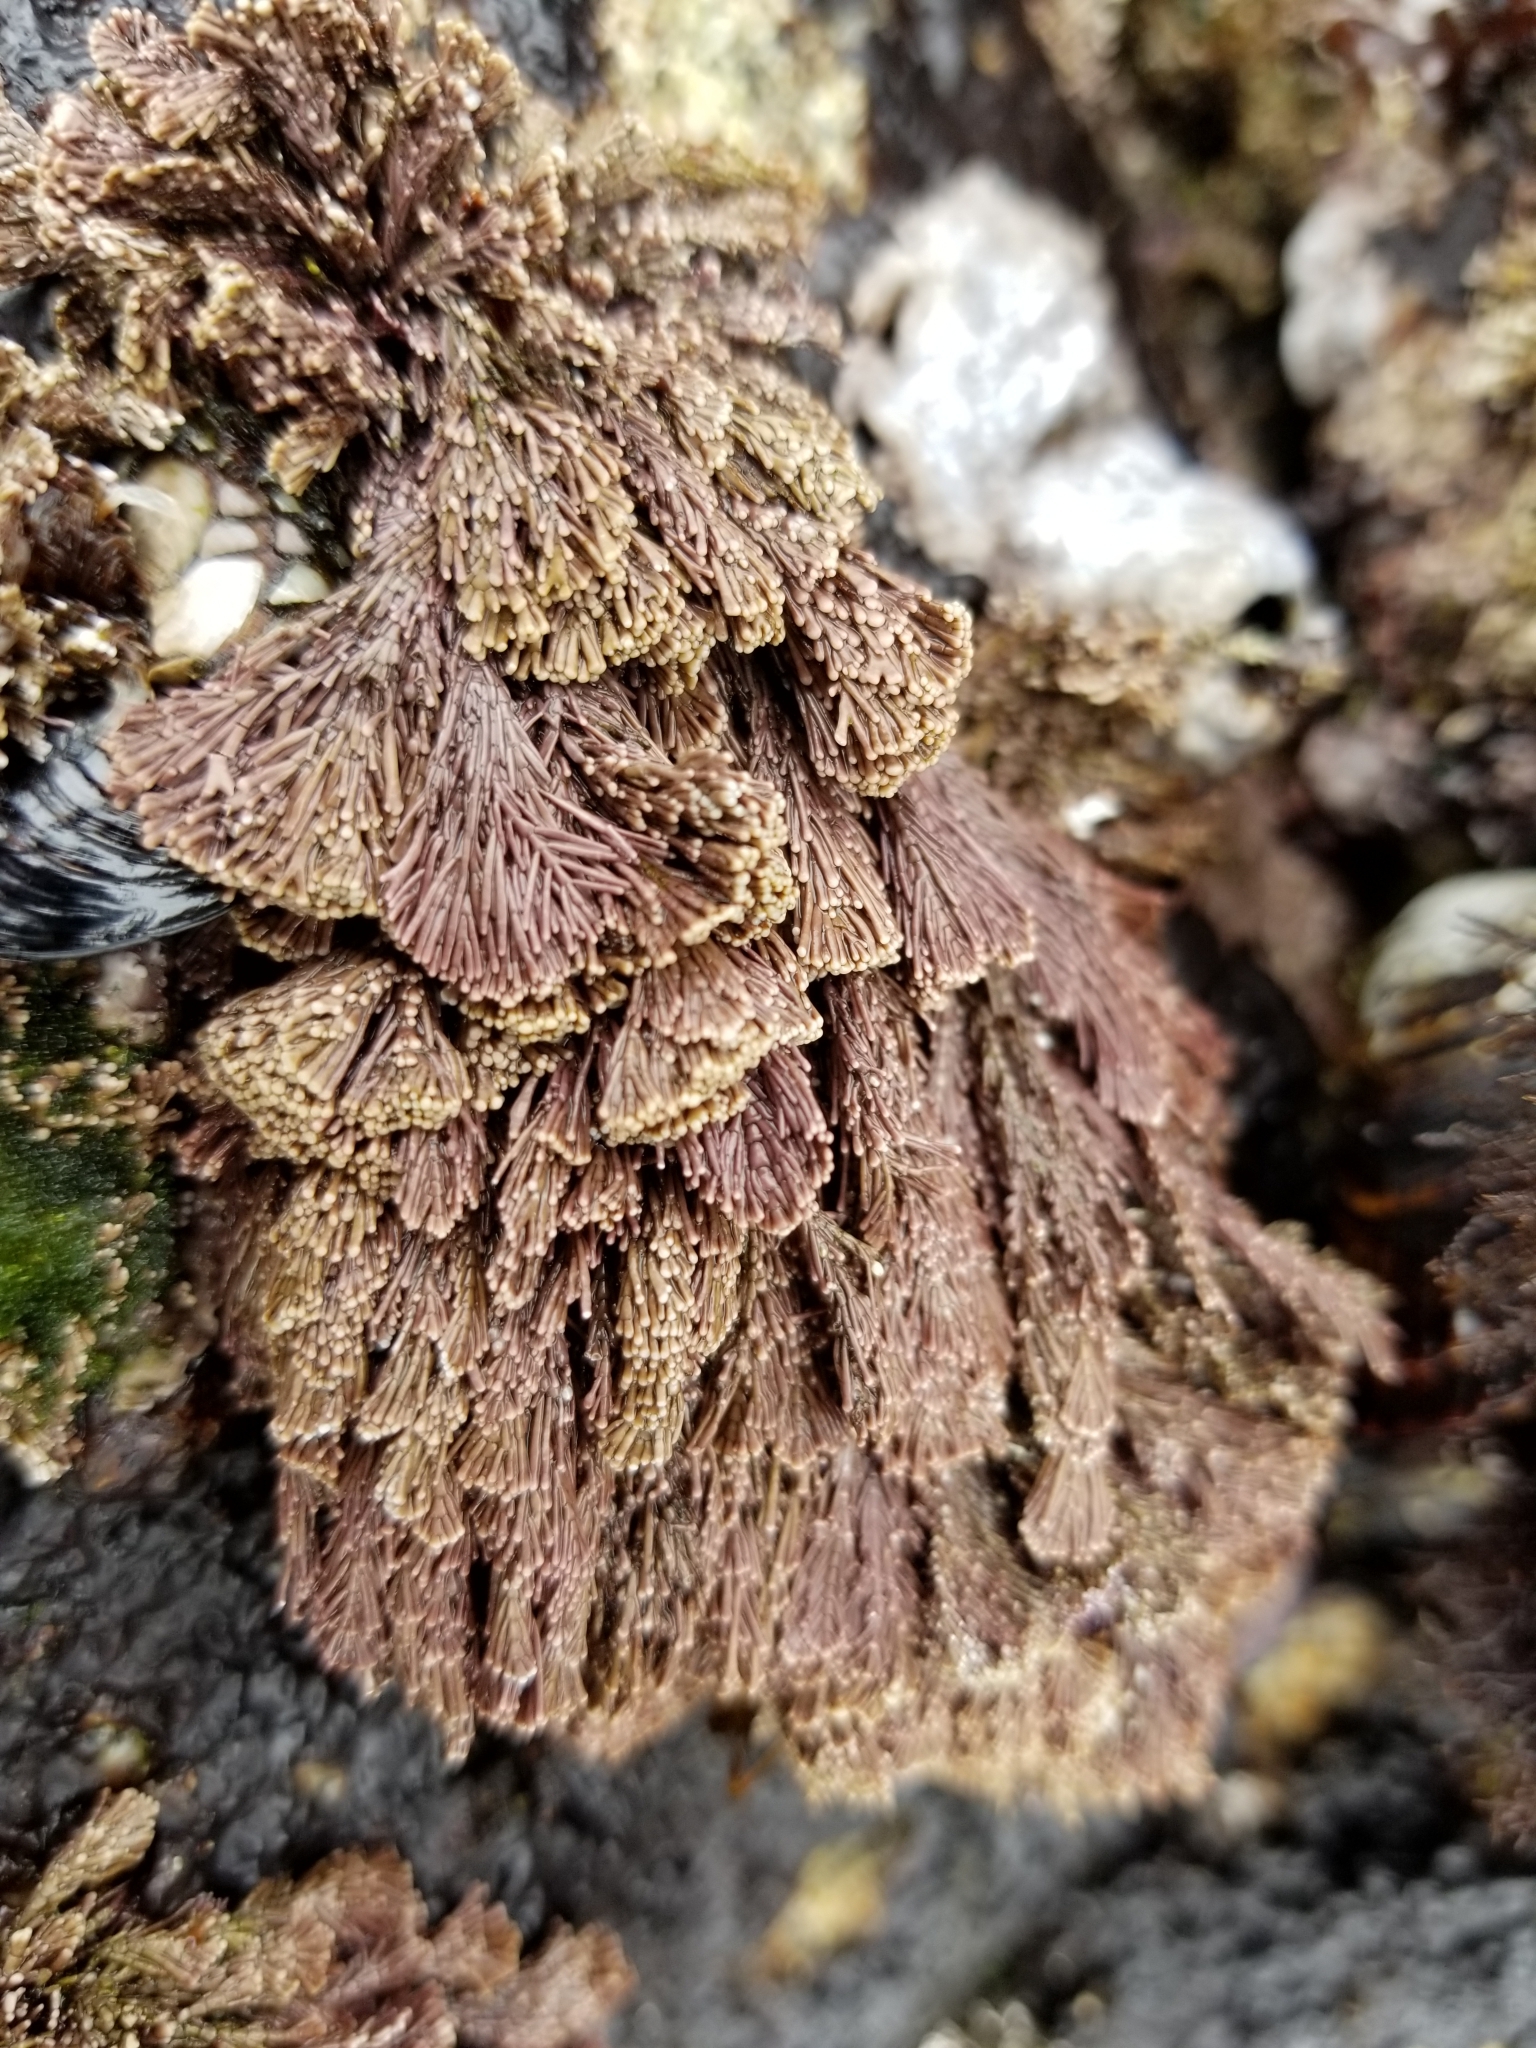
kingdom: Plantae
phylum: Rhodophyta
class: Florideophyceae
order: Corallinales
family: Corallinaceae
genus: Corallina
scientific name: Corallina vancouveriensis
